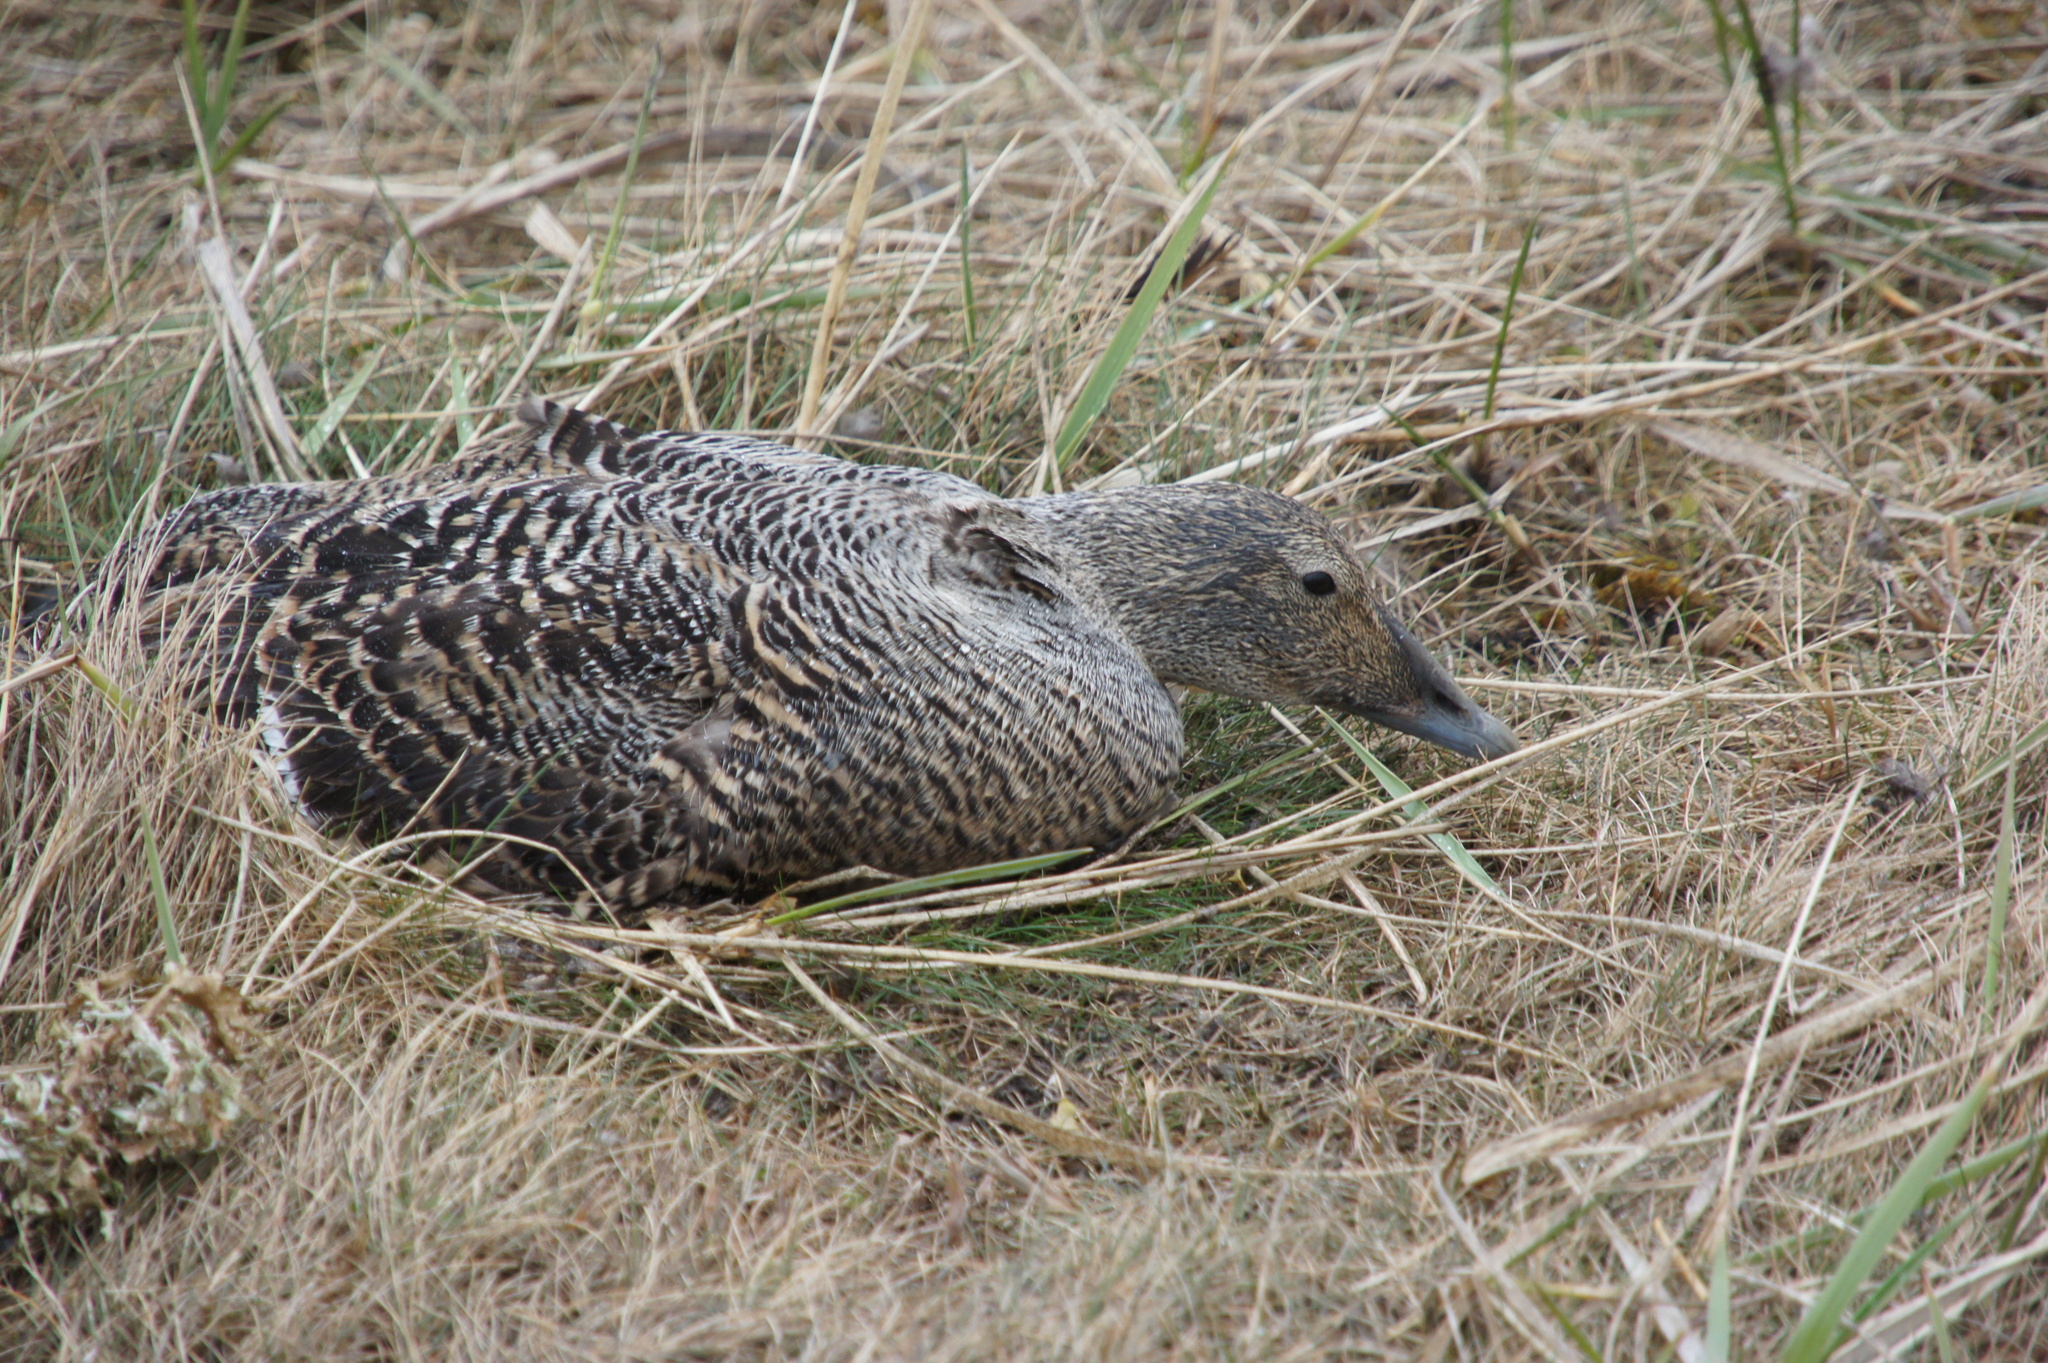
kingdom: Animalia
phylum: Chordata
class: Aves
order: Anseriformes
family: Anatidae
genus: Somateria
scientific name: Somateria mollissima
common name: Common eider
